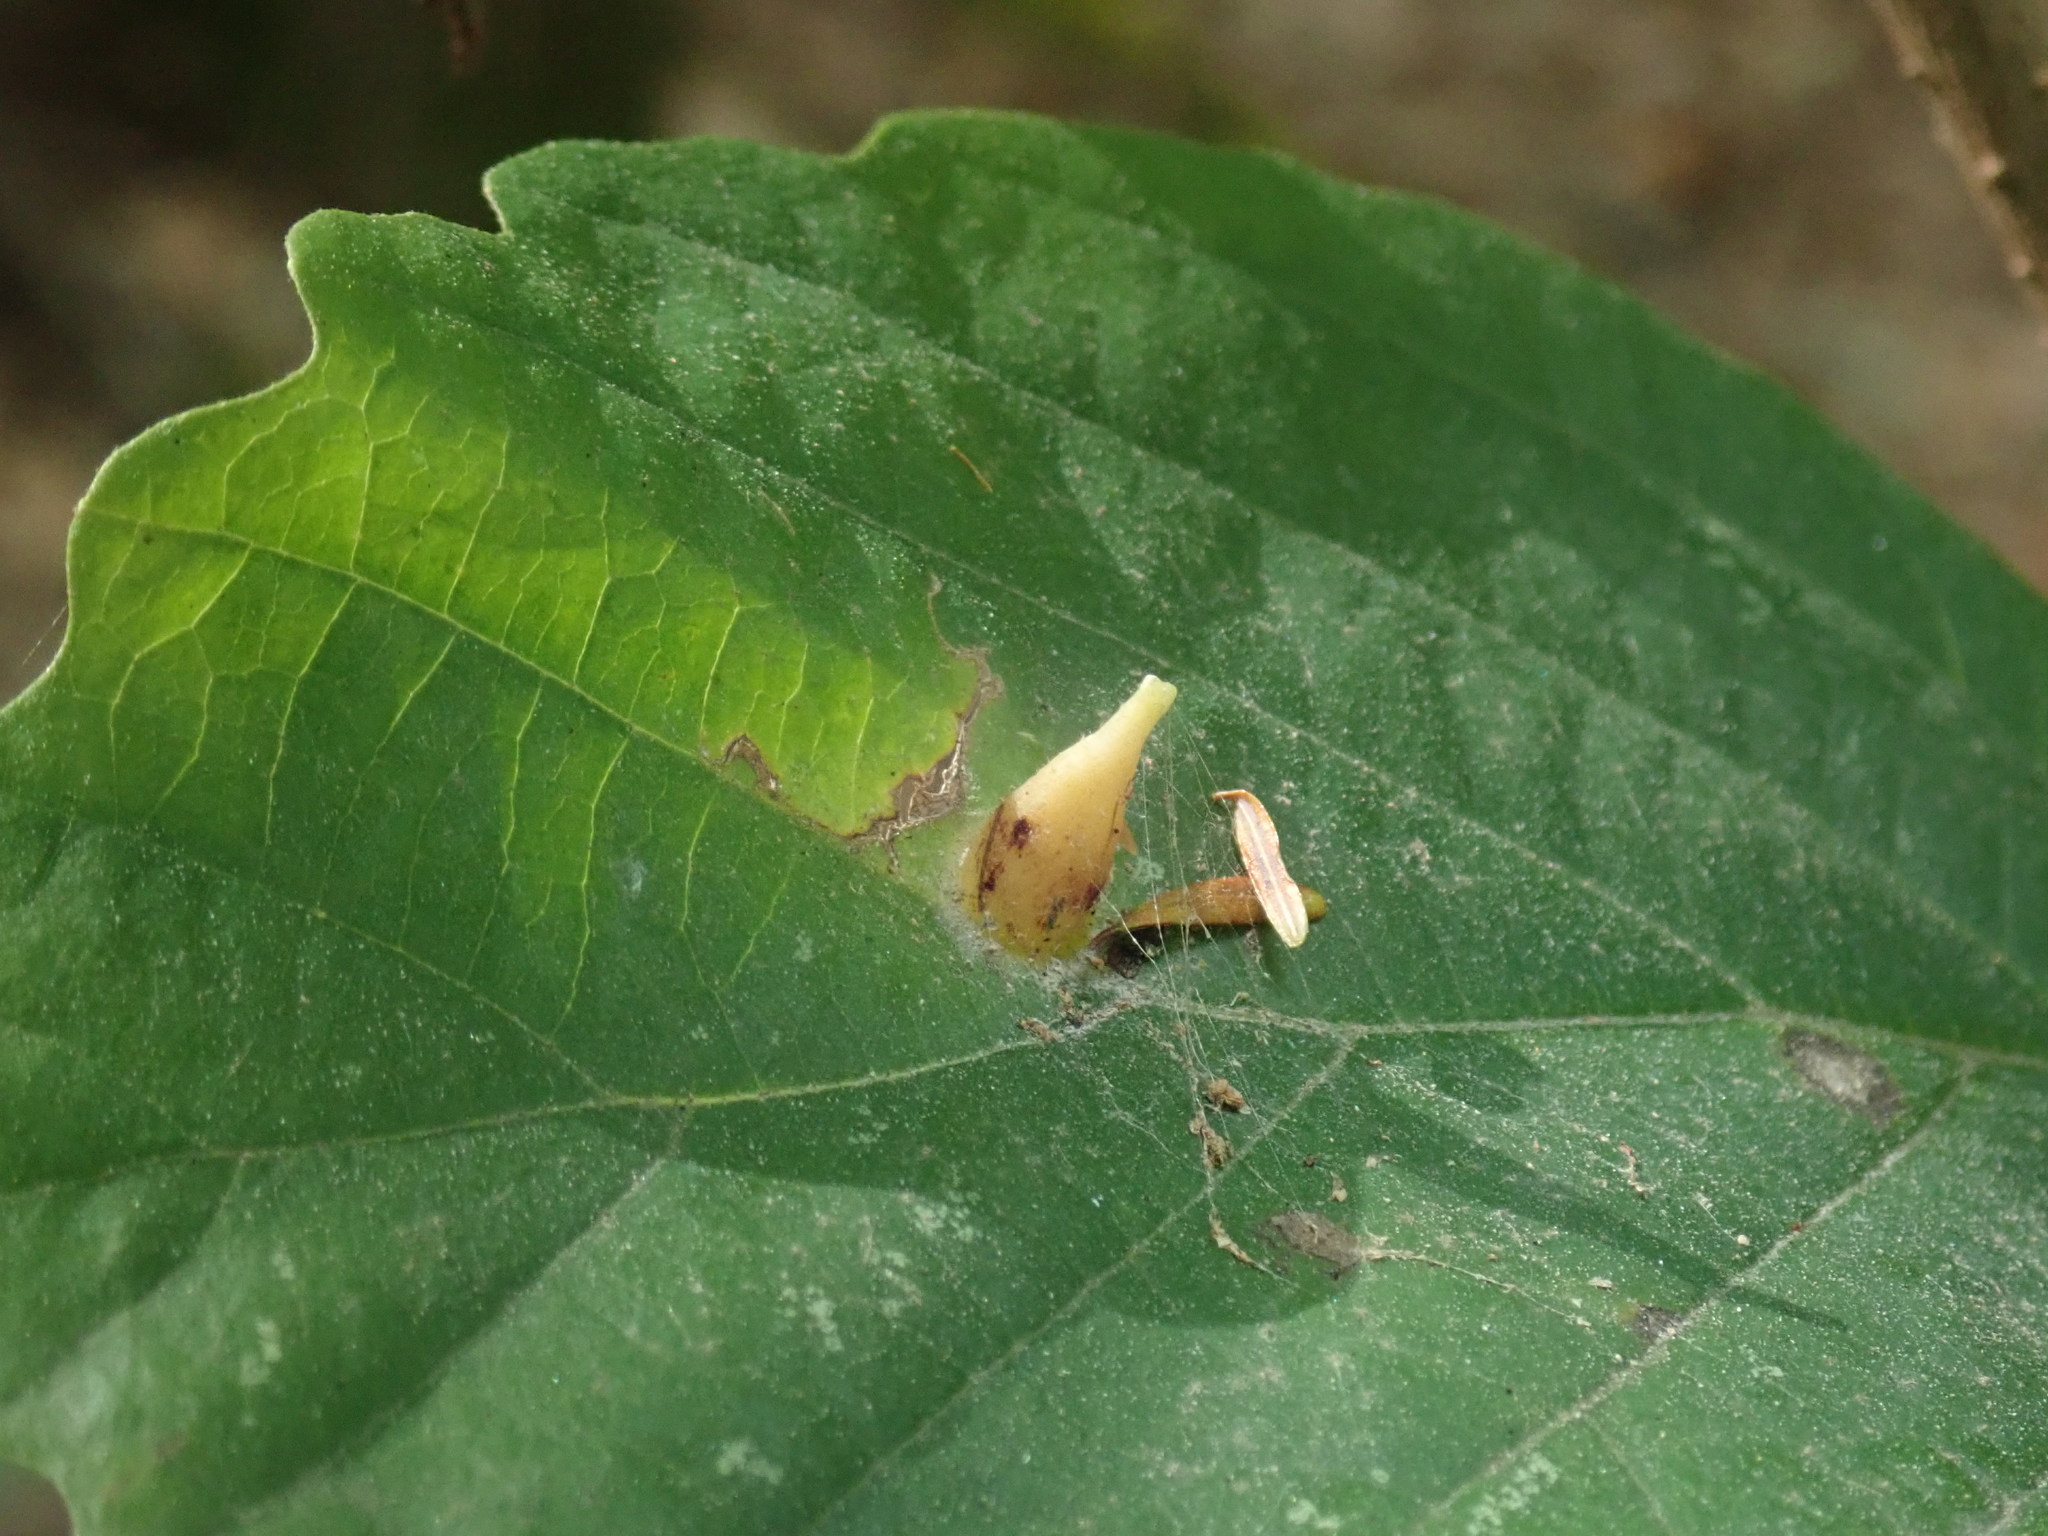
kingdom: Animalia
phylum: Arthropoda
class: Insecta
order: Hemiptera
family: Aphididae
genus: Hormaphis
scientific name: Hormaphis hamamelidis
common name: Witch-hazel cone gall aphid
